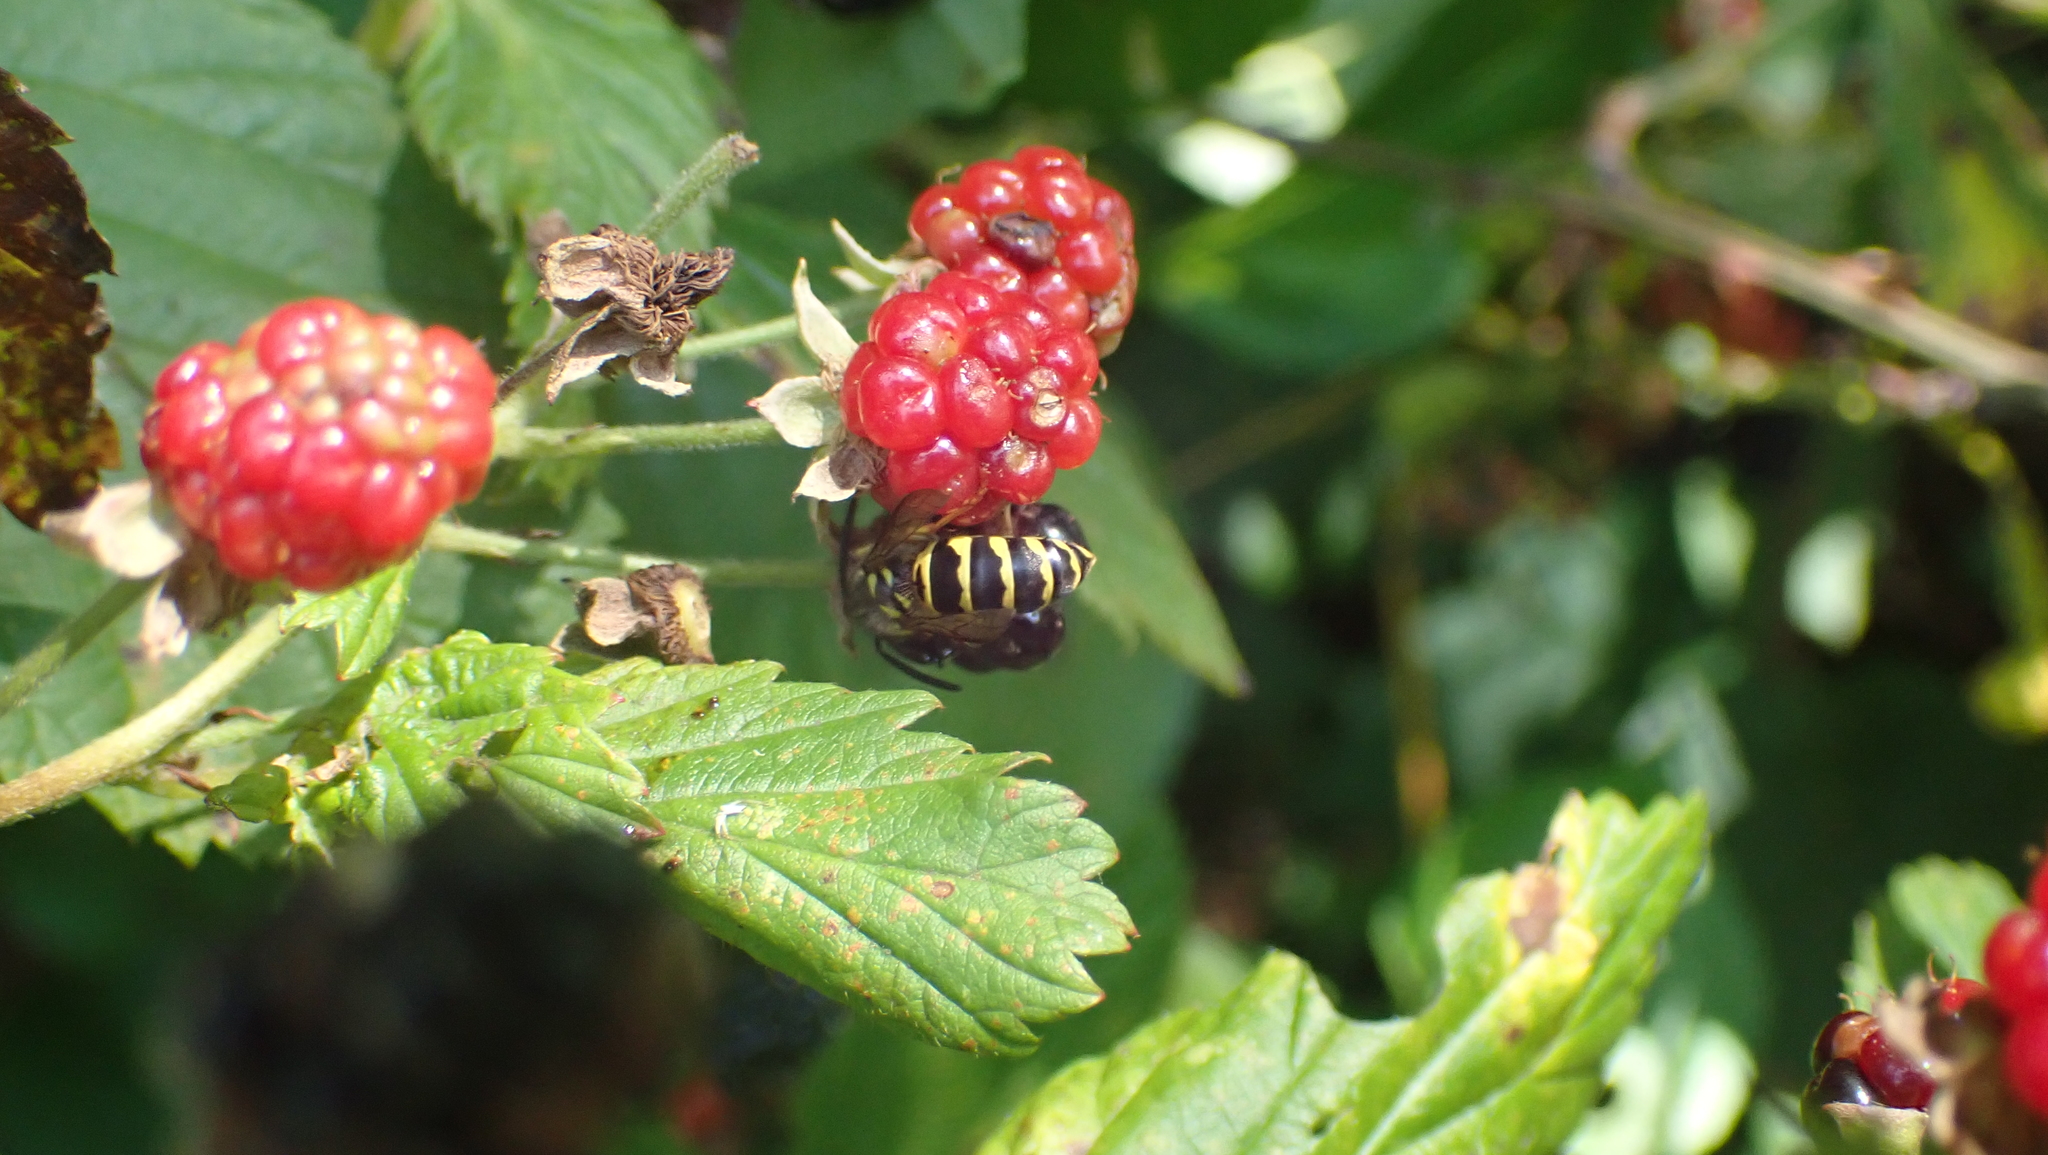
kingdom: Animalia
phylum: Arthropoda
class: Insecta
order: Hymenoptera
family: Vespidae
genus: Vespula
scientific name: Vespula maculifrons
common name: Eastern yellowjacket
